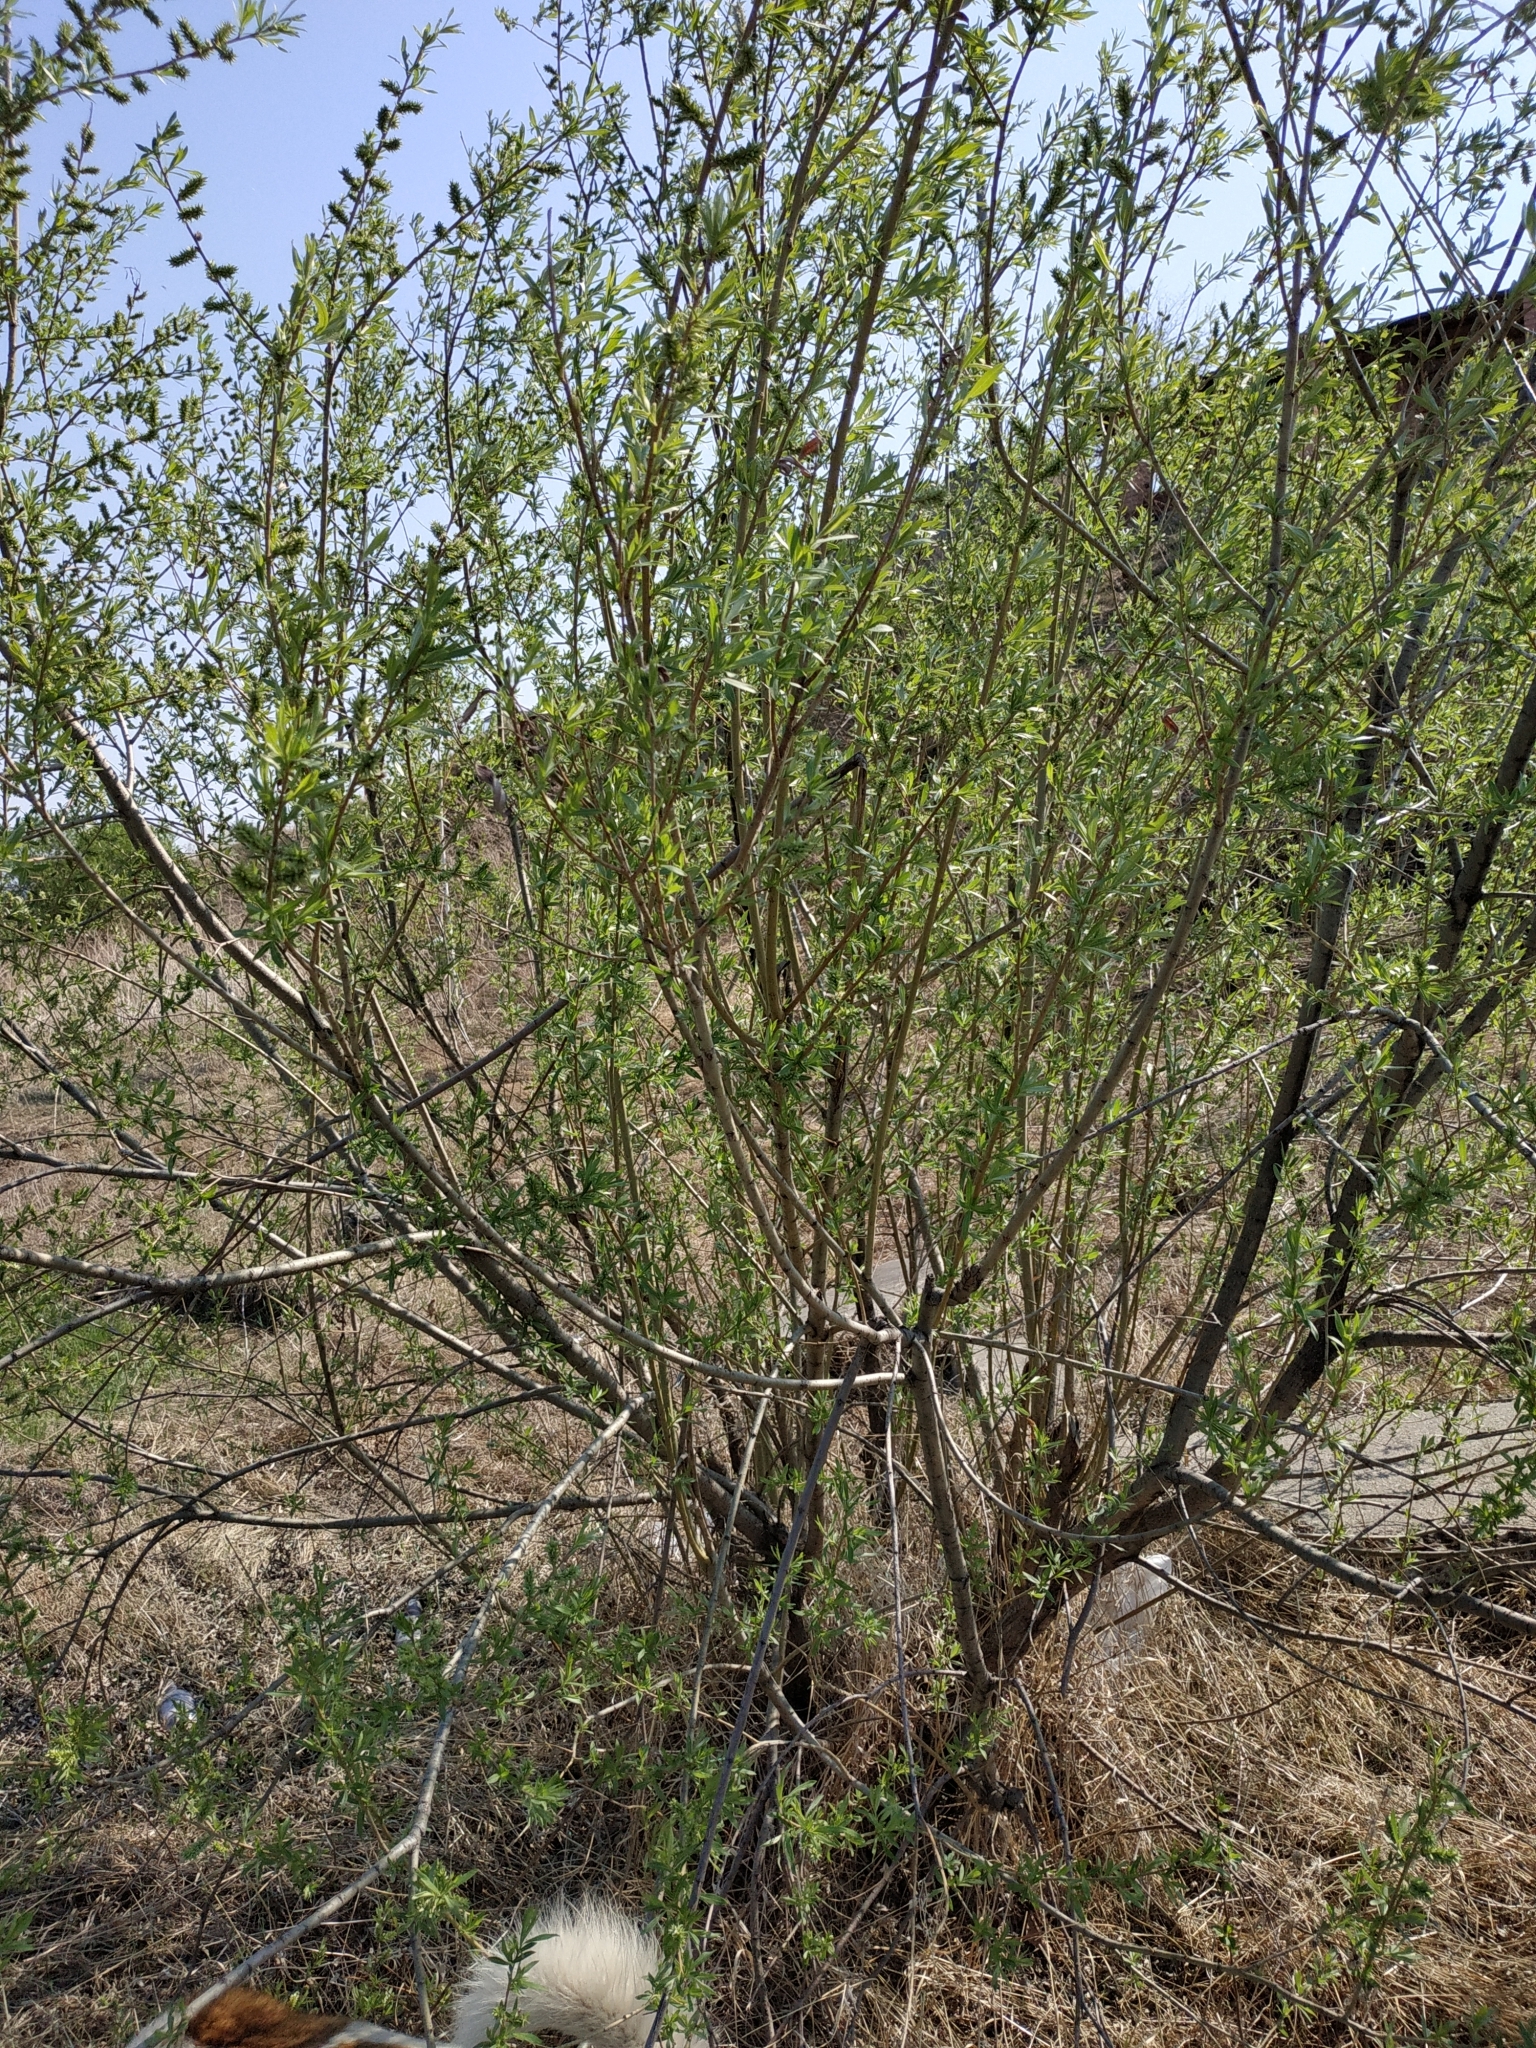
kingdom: Plantae
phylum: Tracheophyta
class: Magnoliopsida
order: Malpighiales
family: Salicaceae
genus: Salix
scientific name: Salix viminalis
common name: Osier
